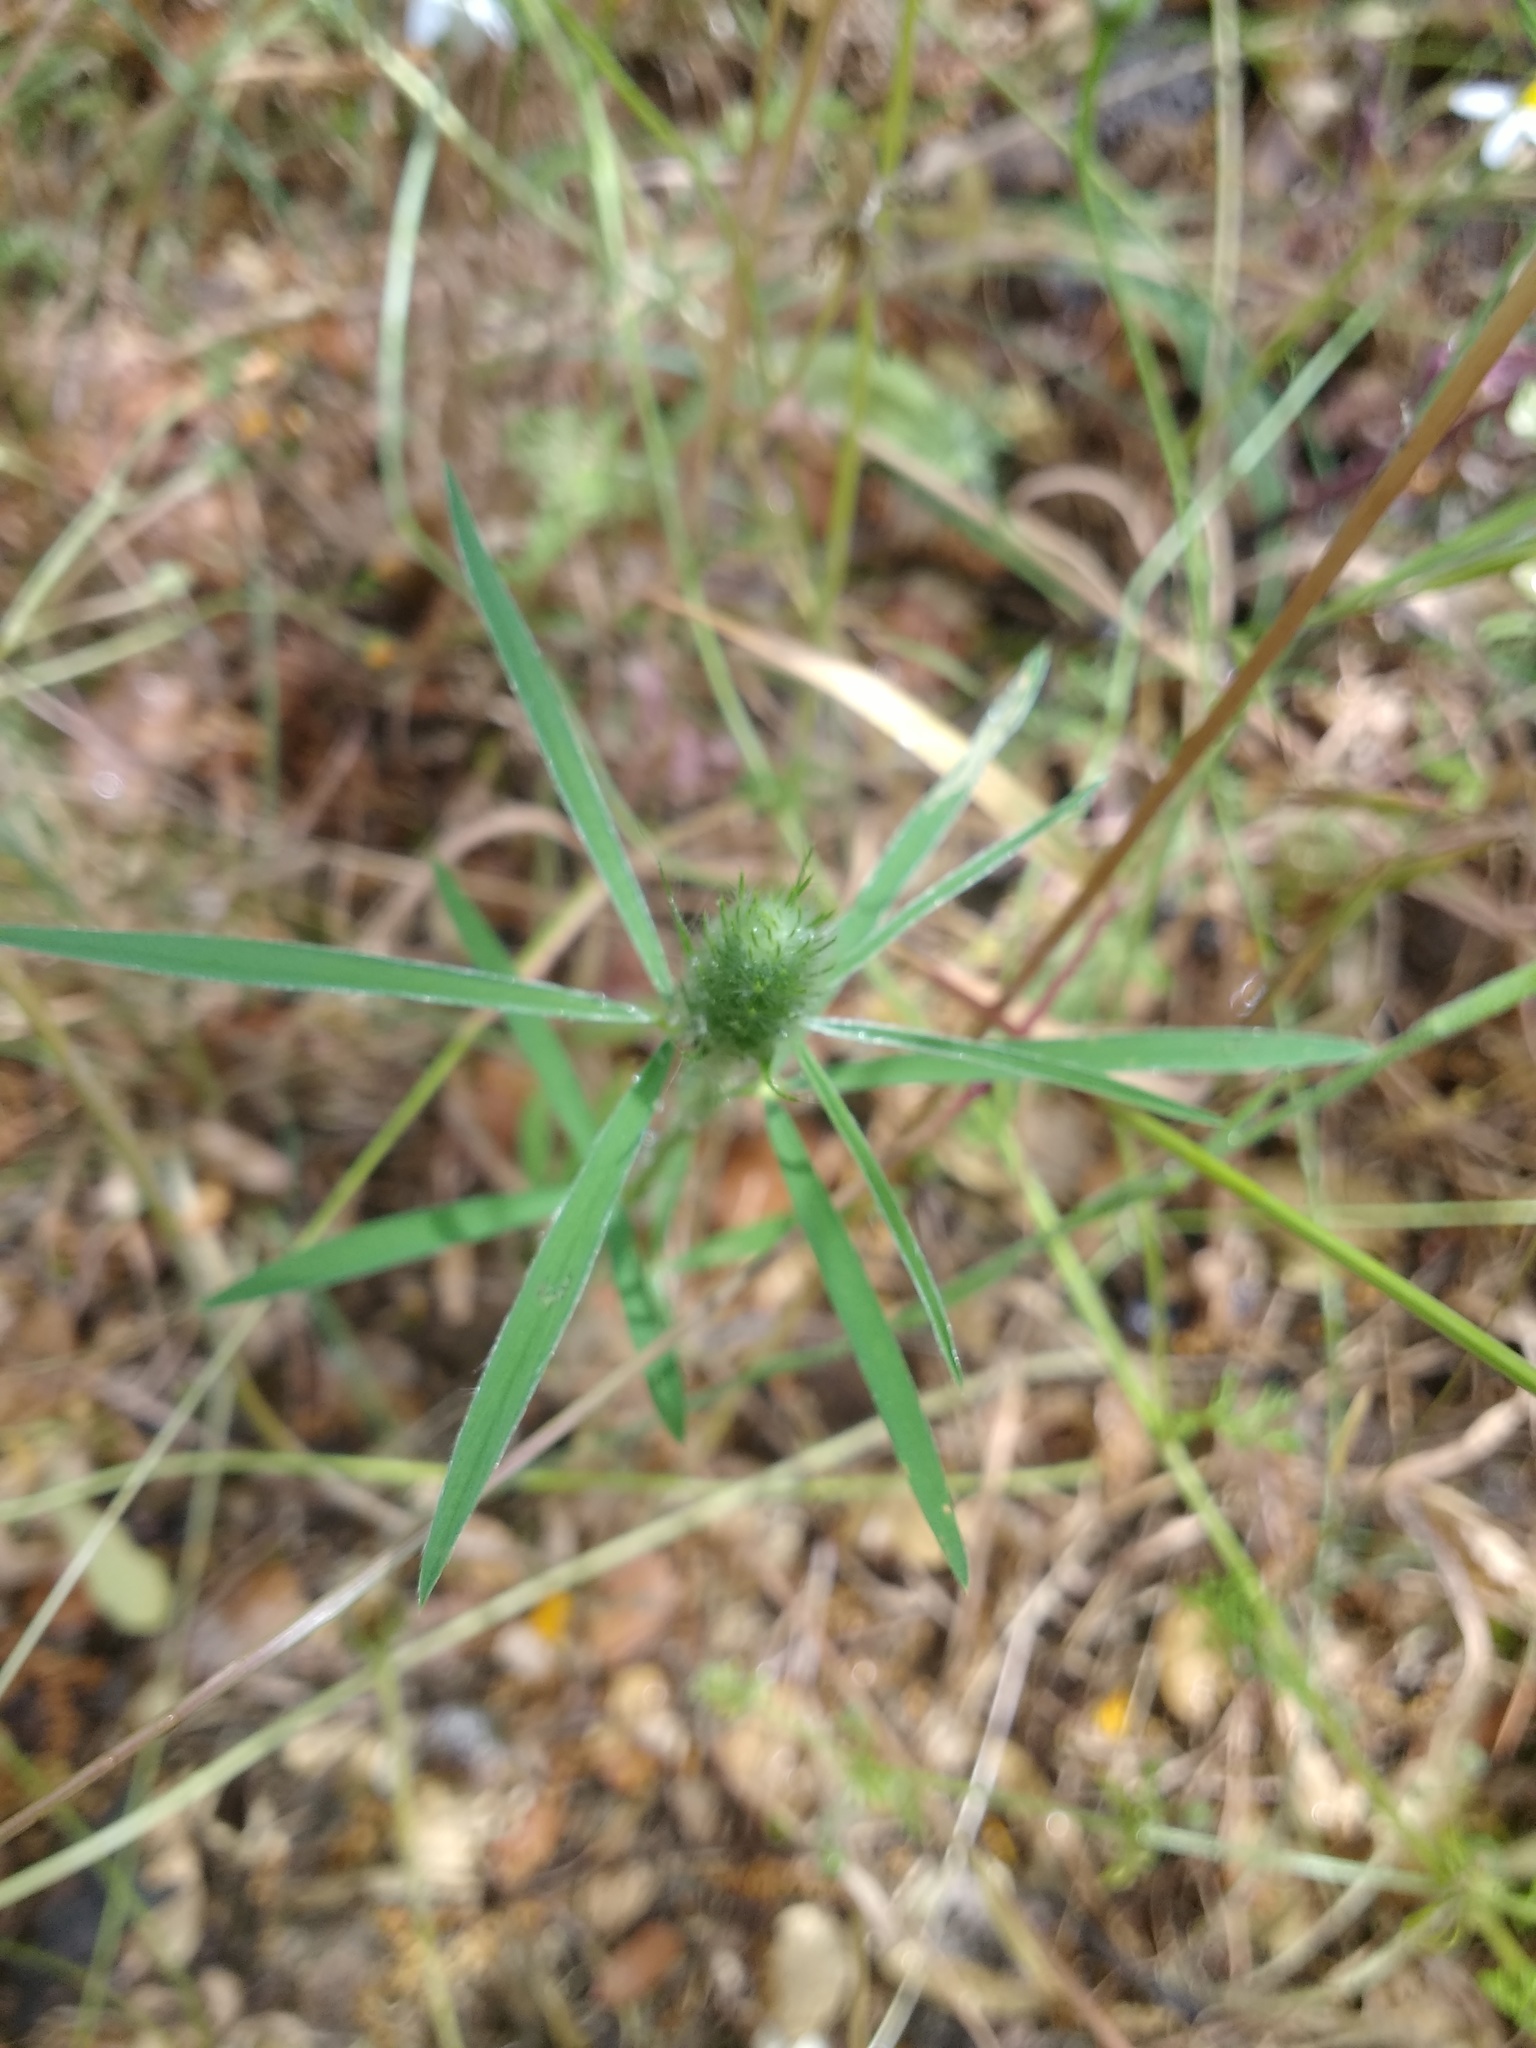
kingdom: Plantae
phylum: Tracheophyta
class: Magnoliopsida
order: Fabales
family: Fabaceae
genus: Trifolium
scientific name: Trifolium angustifolium
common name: Narrow clover
